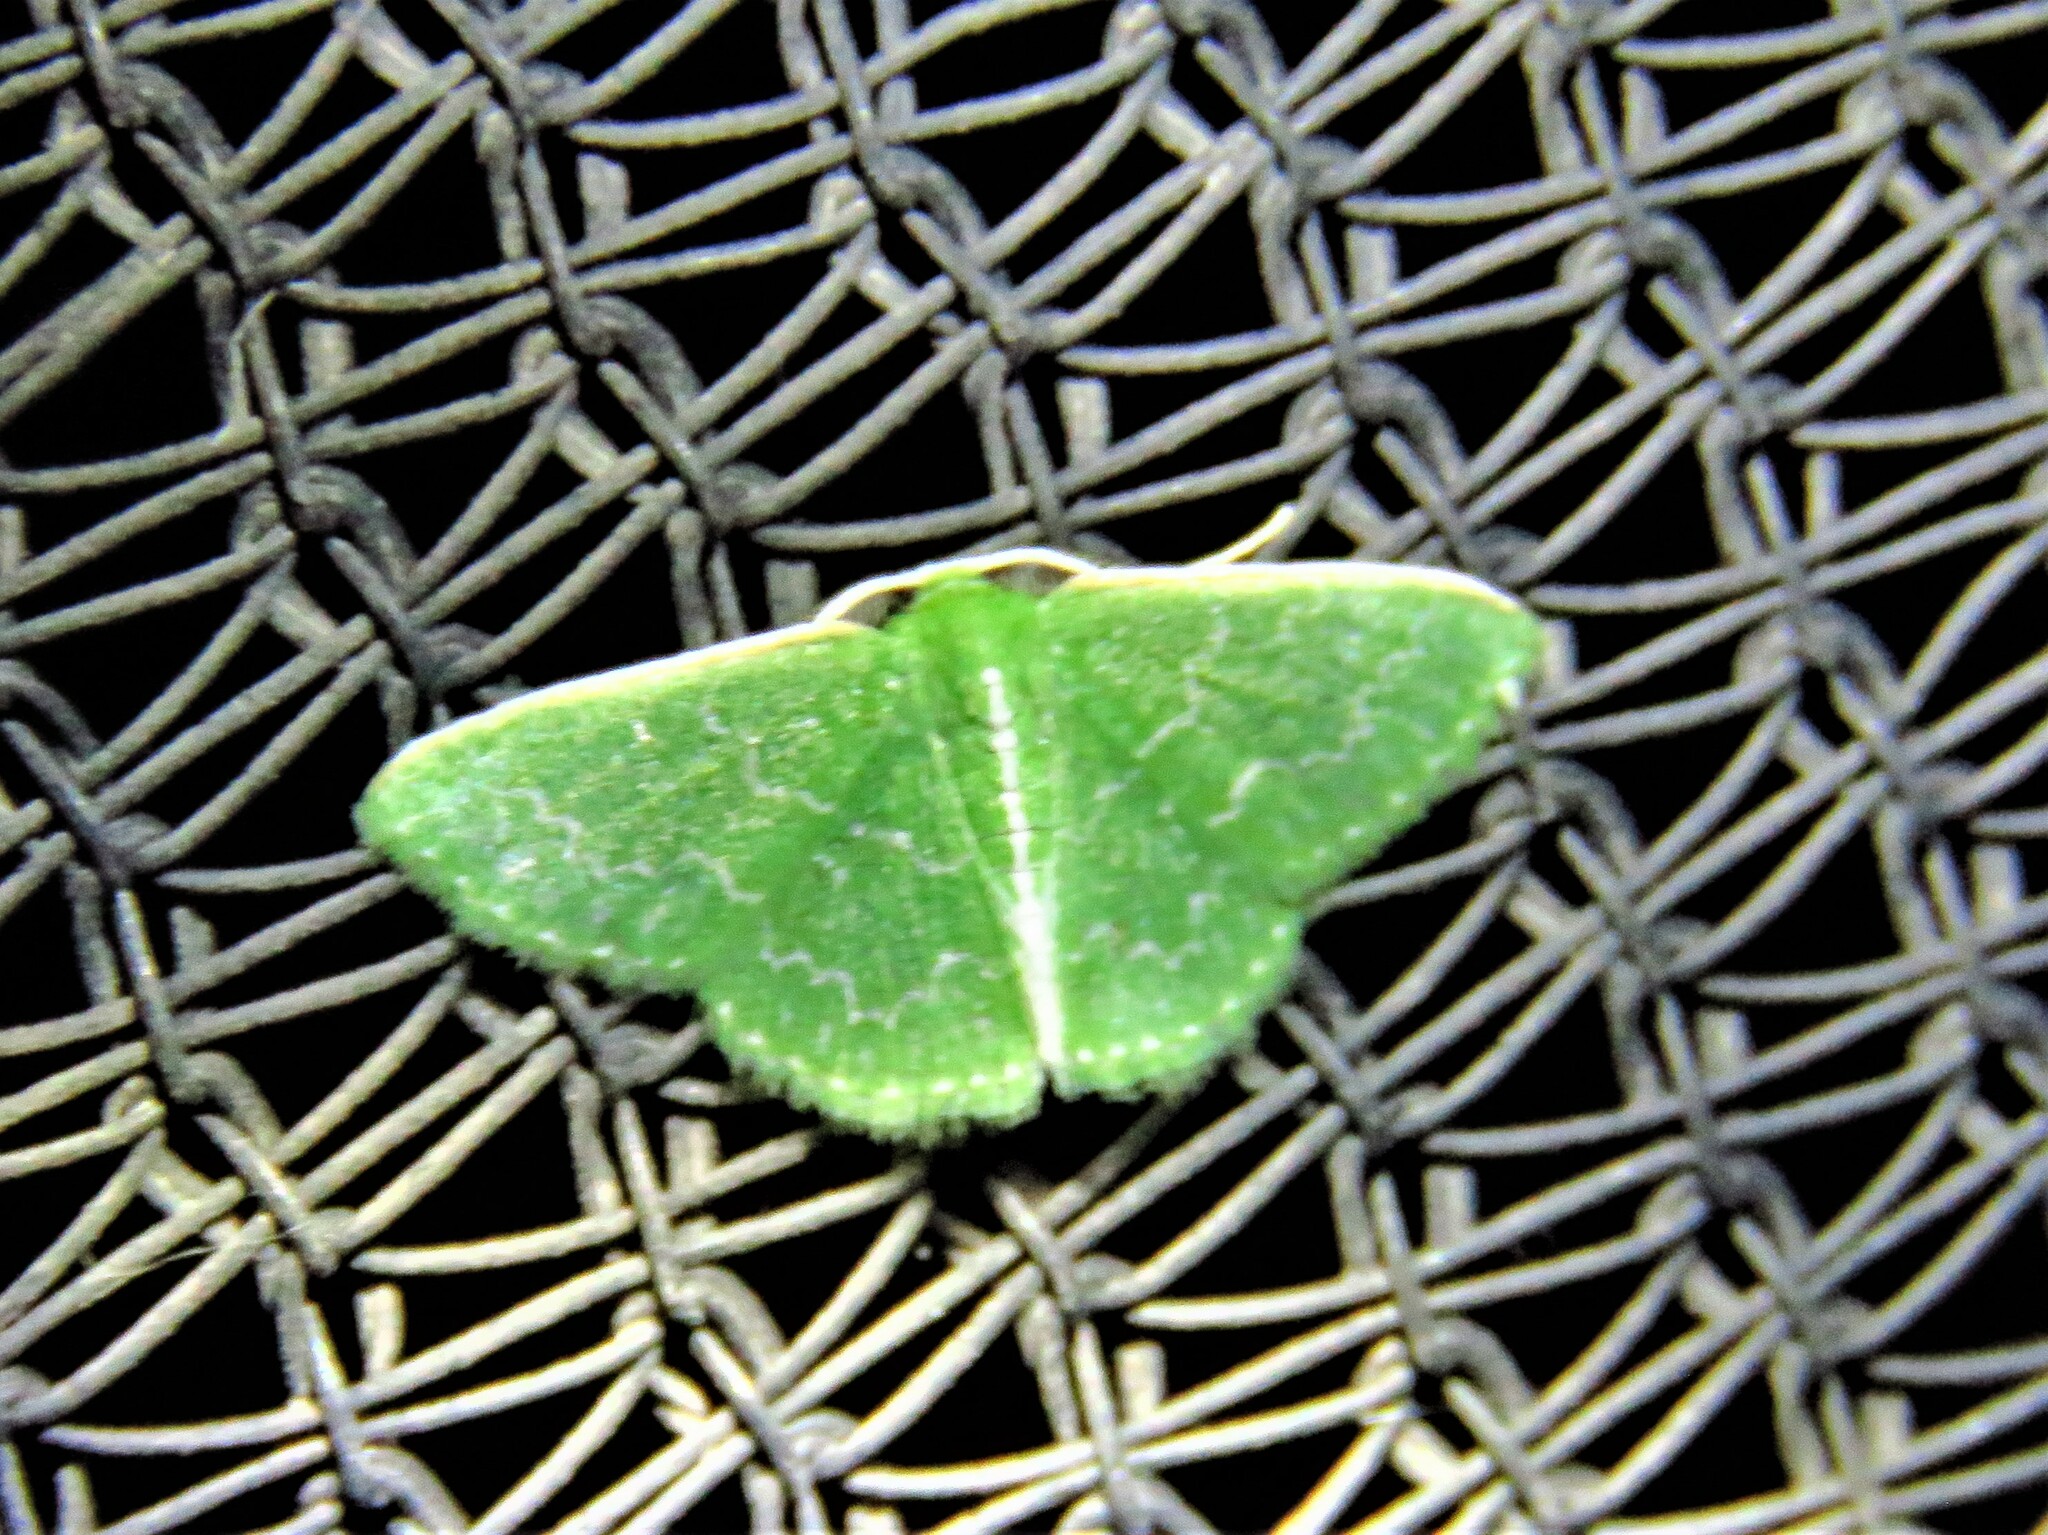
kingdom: Animalia
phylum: Arthropoda
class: Insecta
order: Lepidoptera
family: Geometridae
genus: Synchlora
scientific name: Synchlora frondaria
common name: Southern emerald
